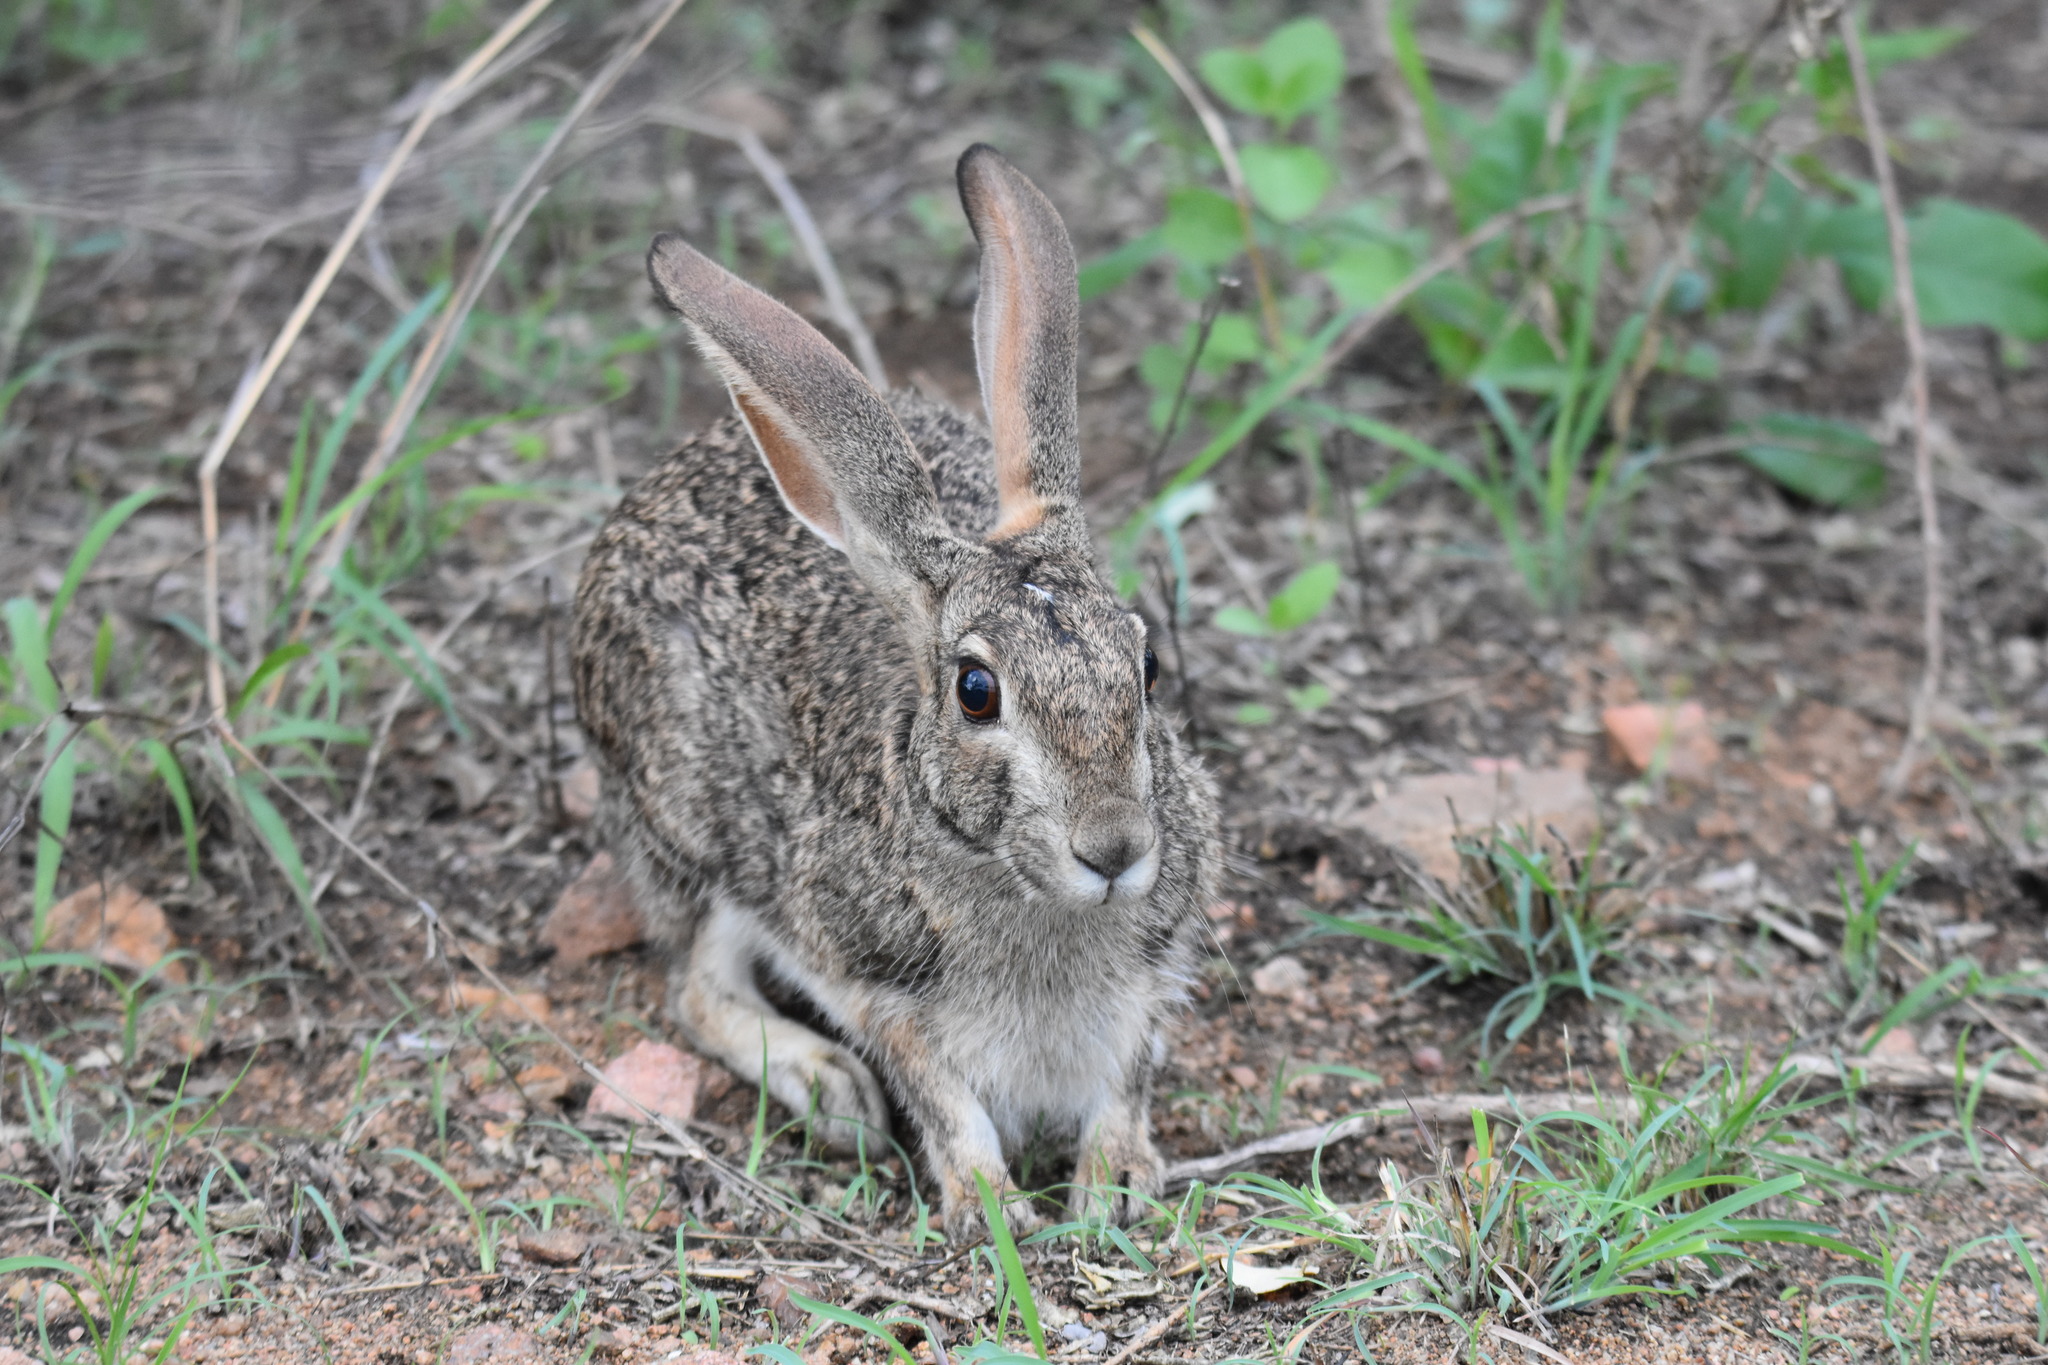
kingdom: Animalia
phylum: Chordata
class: Mammalia
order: Lagomorpha
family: Leporidae
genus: Lepus
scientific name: Lepus saxatilis
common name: Scrub hare
